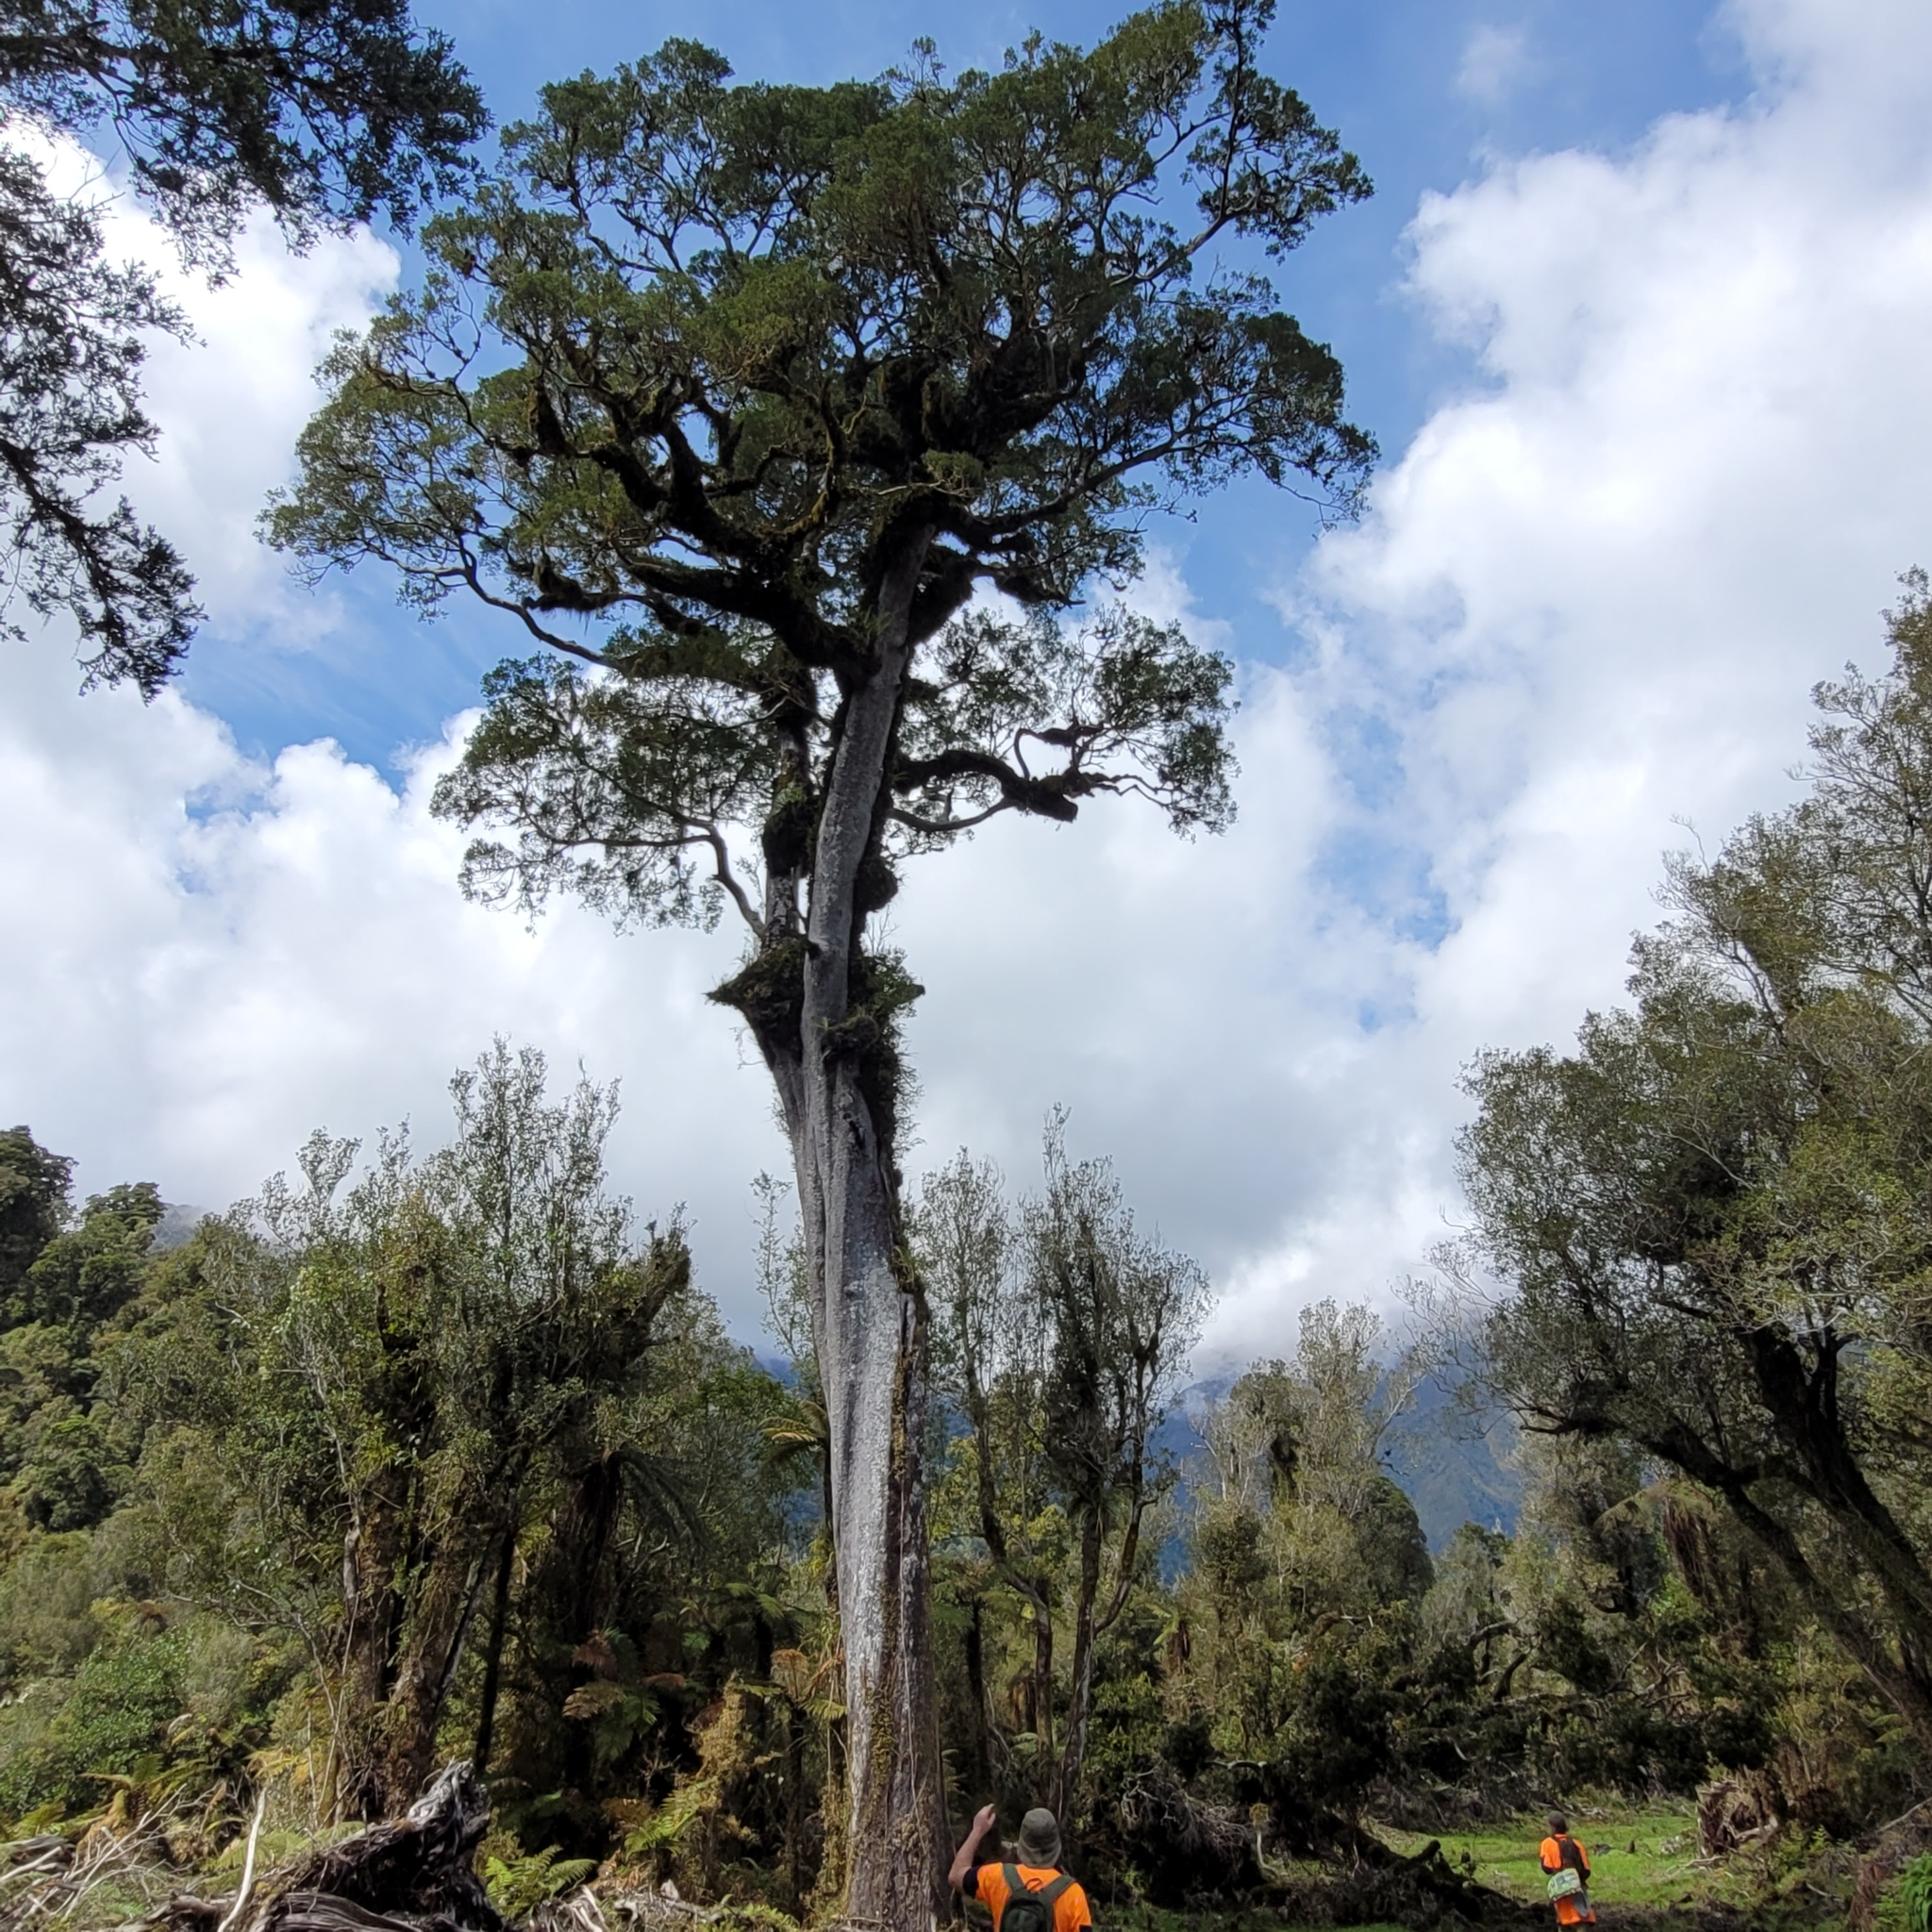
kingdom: Plantae
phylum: Tracheophyta
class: Pinopsida
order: Pinales
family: Podocarpaceae
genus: Prumnopitys
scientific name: Prumnopitys taxifolia
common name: Matai
